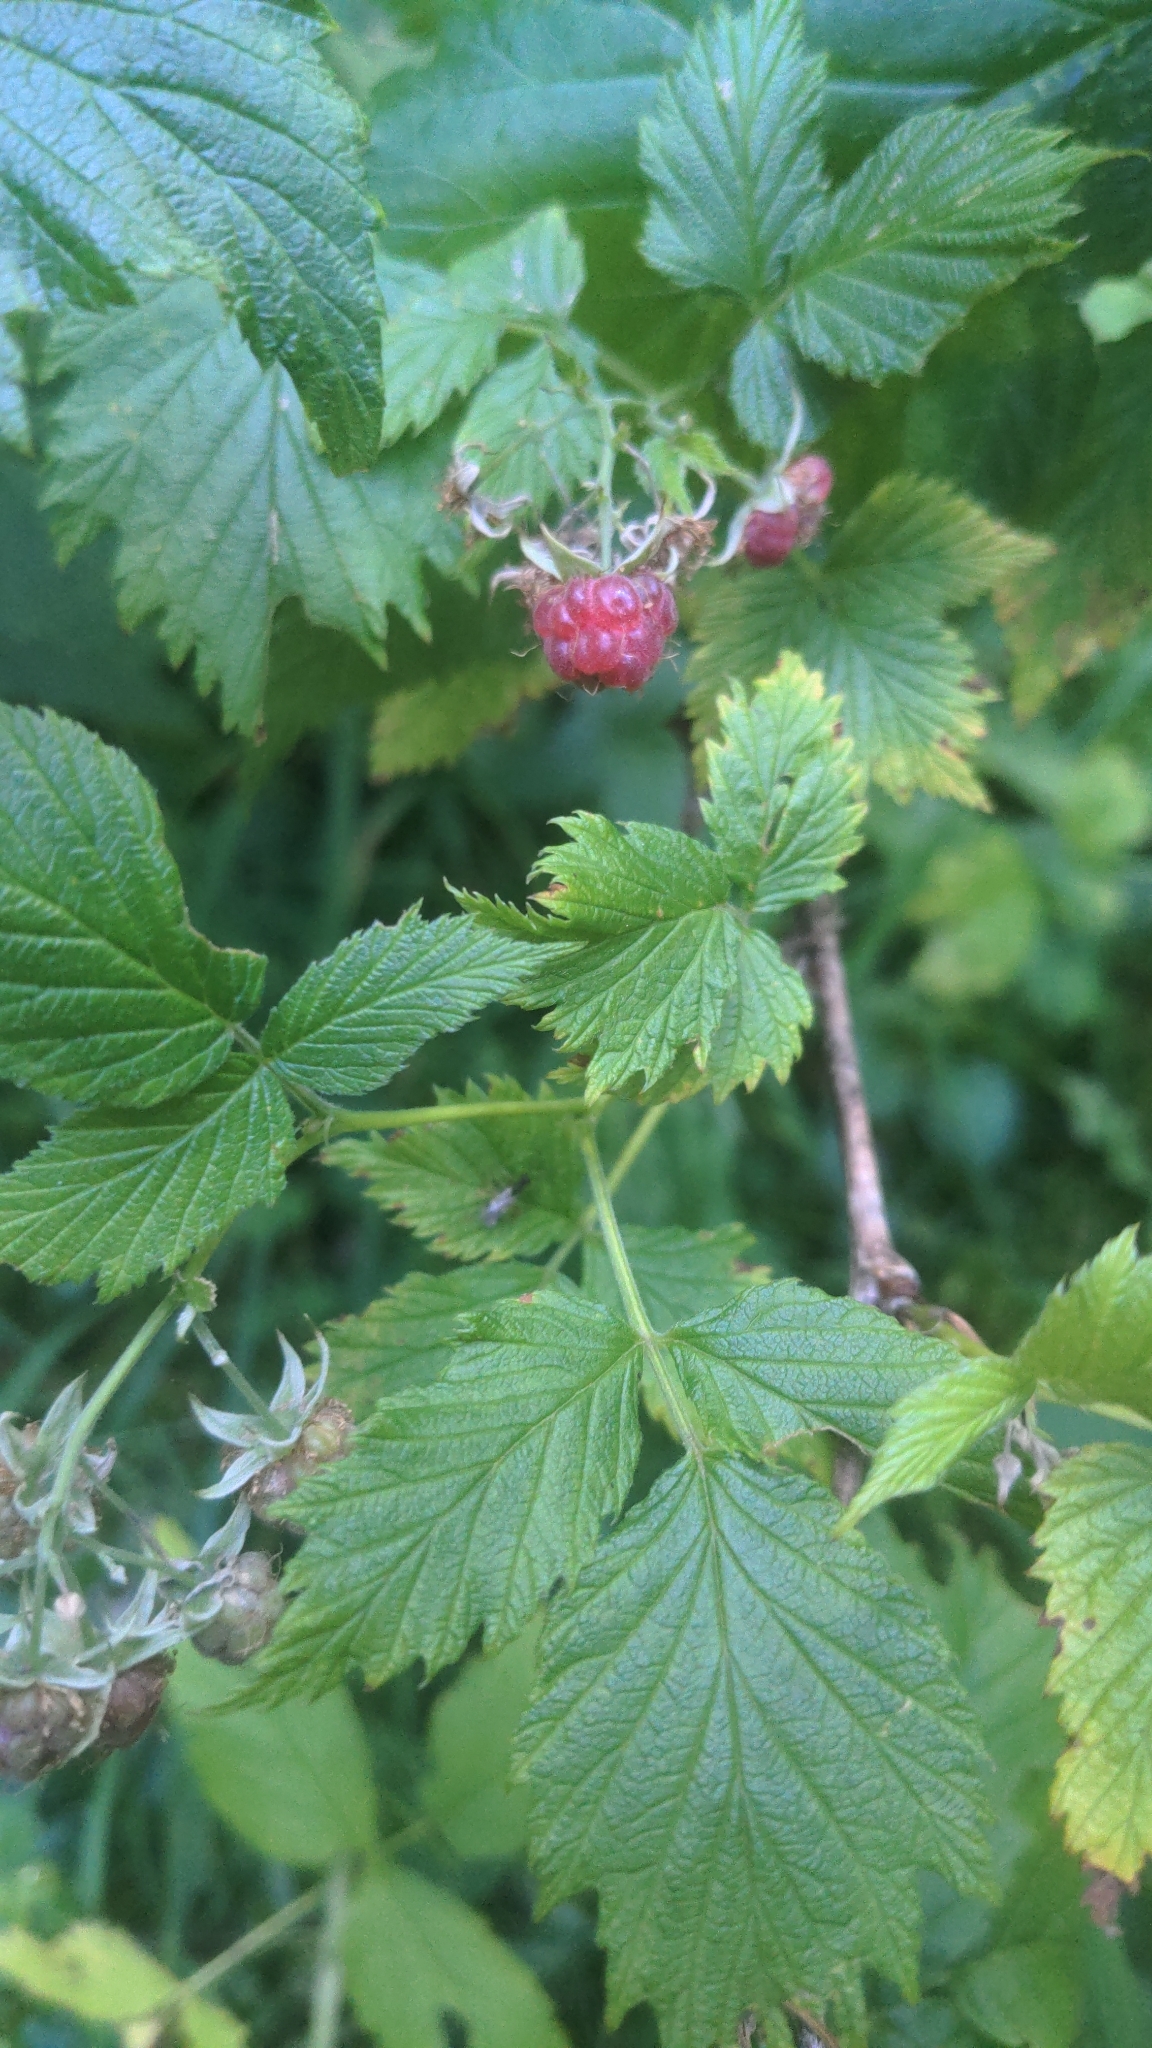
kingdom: Plantae
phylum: Tracheophyta
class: Magnoliopsida
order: Rosales
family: Rosaceae
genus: Rubus
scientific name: Rubus idaeus
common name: Raspberry
